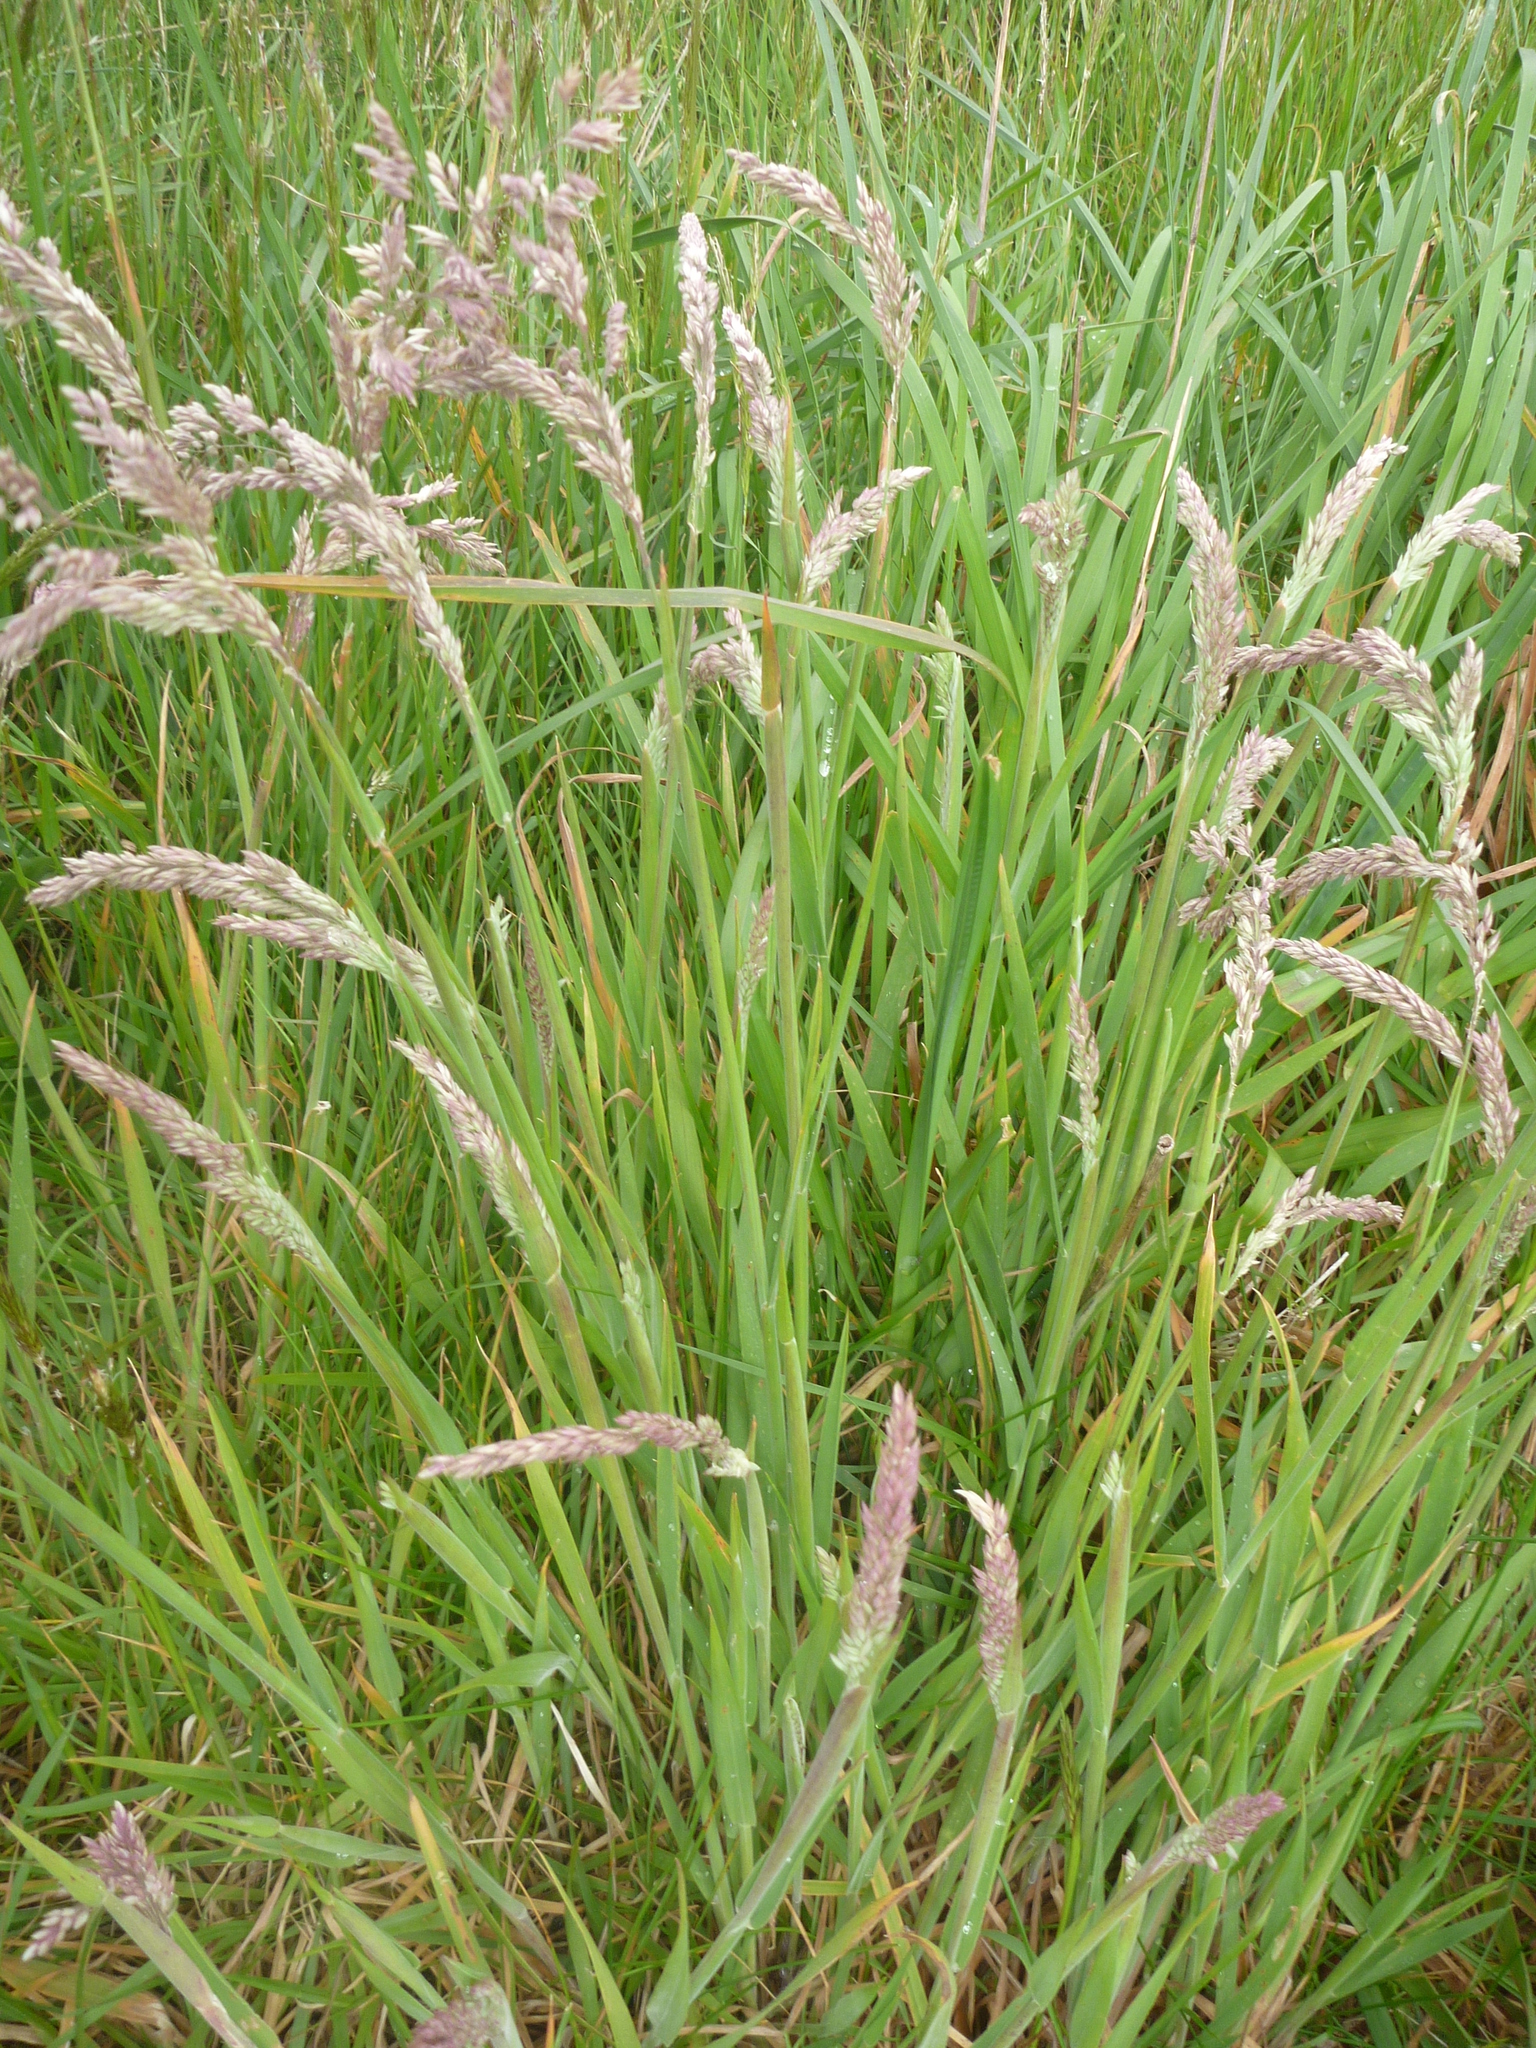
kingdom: Plantae
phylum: Tracheophyta
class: Liliopsida
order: Poales
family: Poaceae
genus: Holcus
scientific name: Holcus lanatus
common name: Yorkshire-fog
